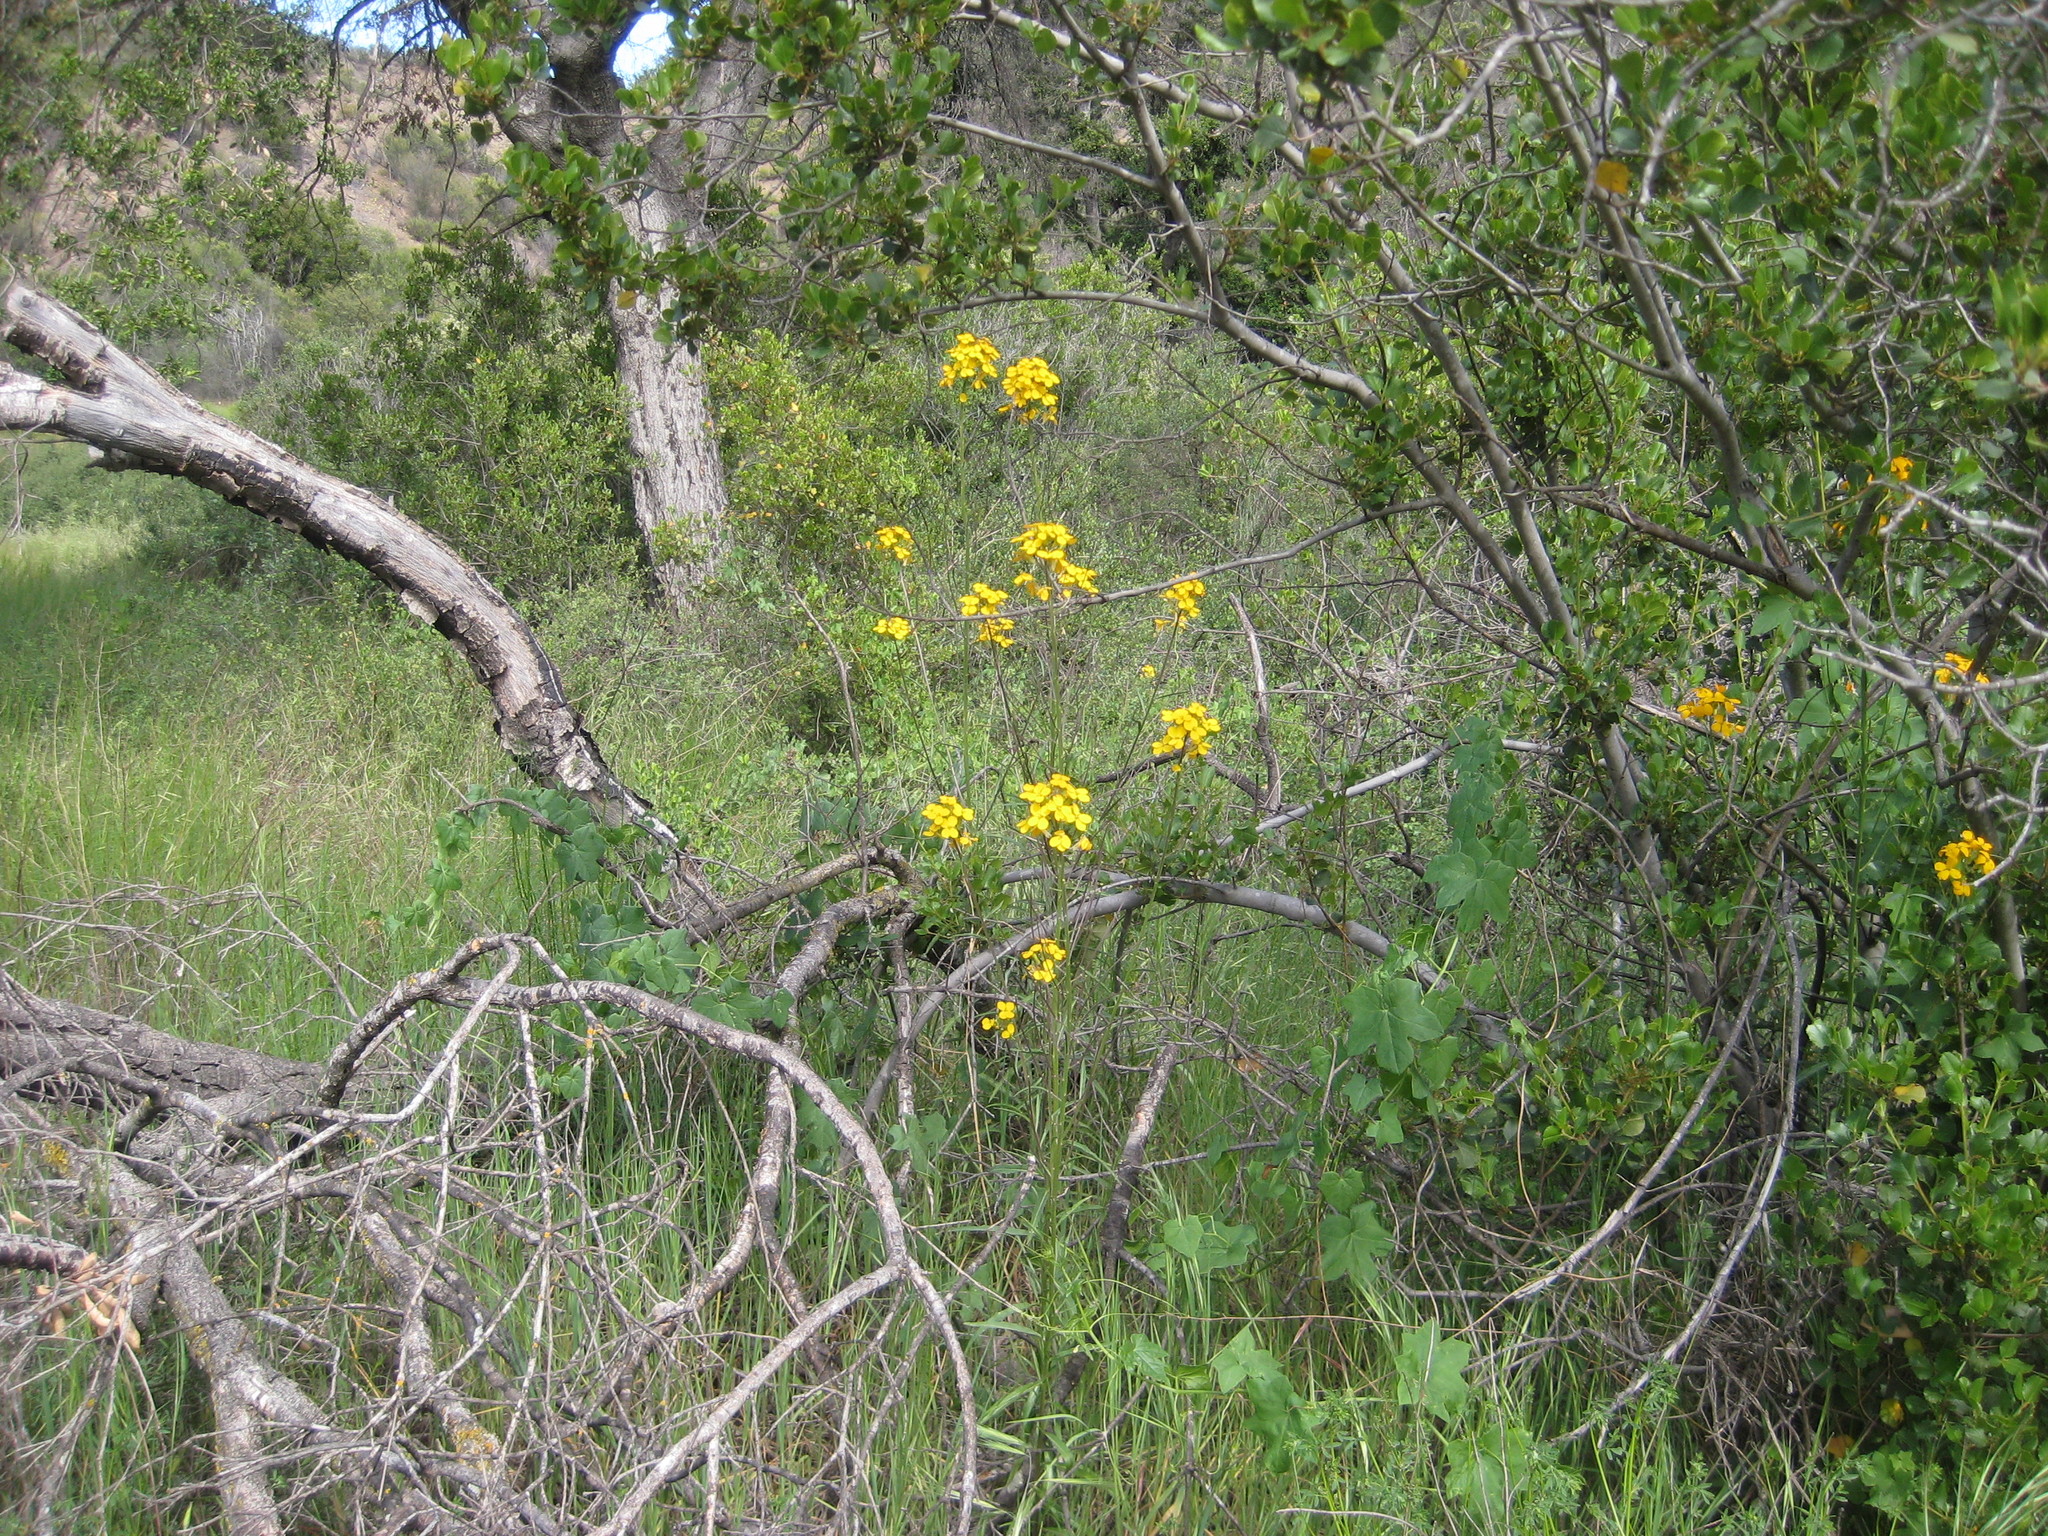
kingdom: Plantae
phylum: Tracheophyta
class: Magnoliopsida
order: Brassicales
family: Brassicaceae
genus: Erysimum
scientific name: Erysimum capitatum
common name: Western wallflower
